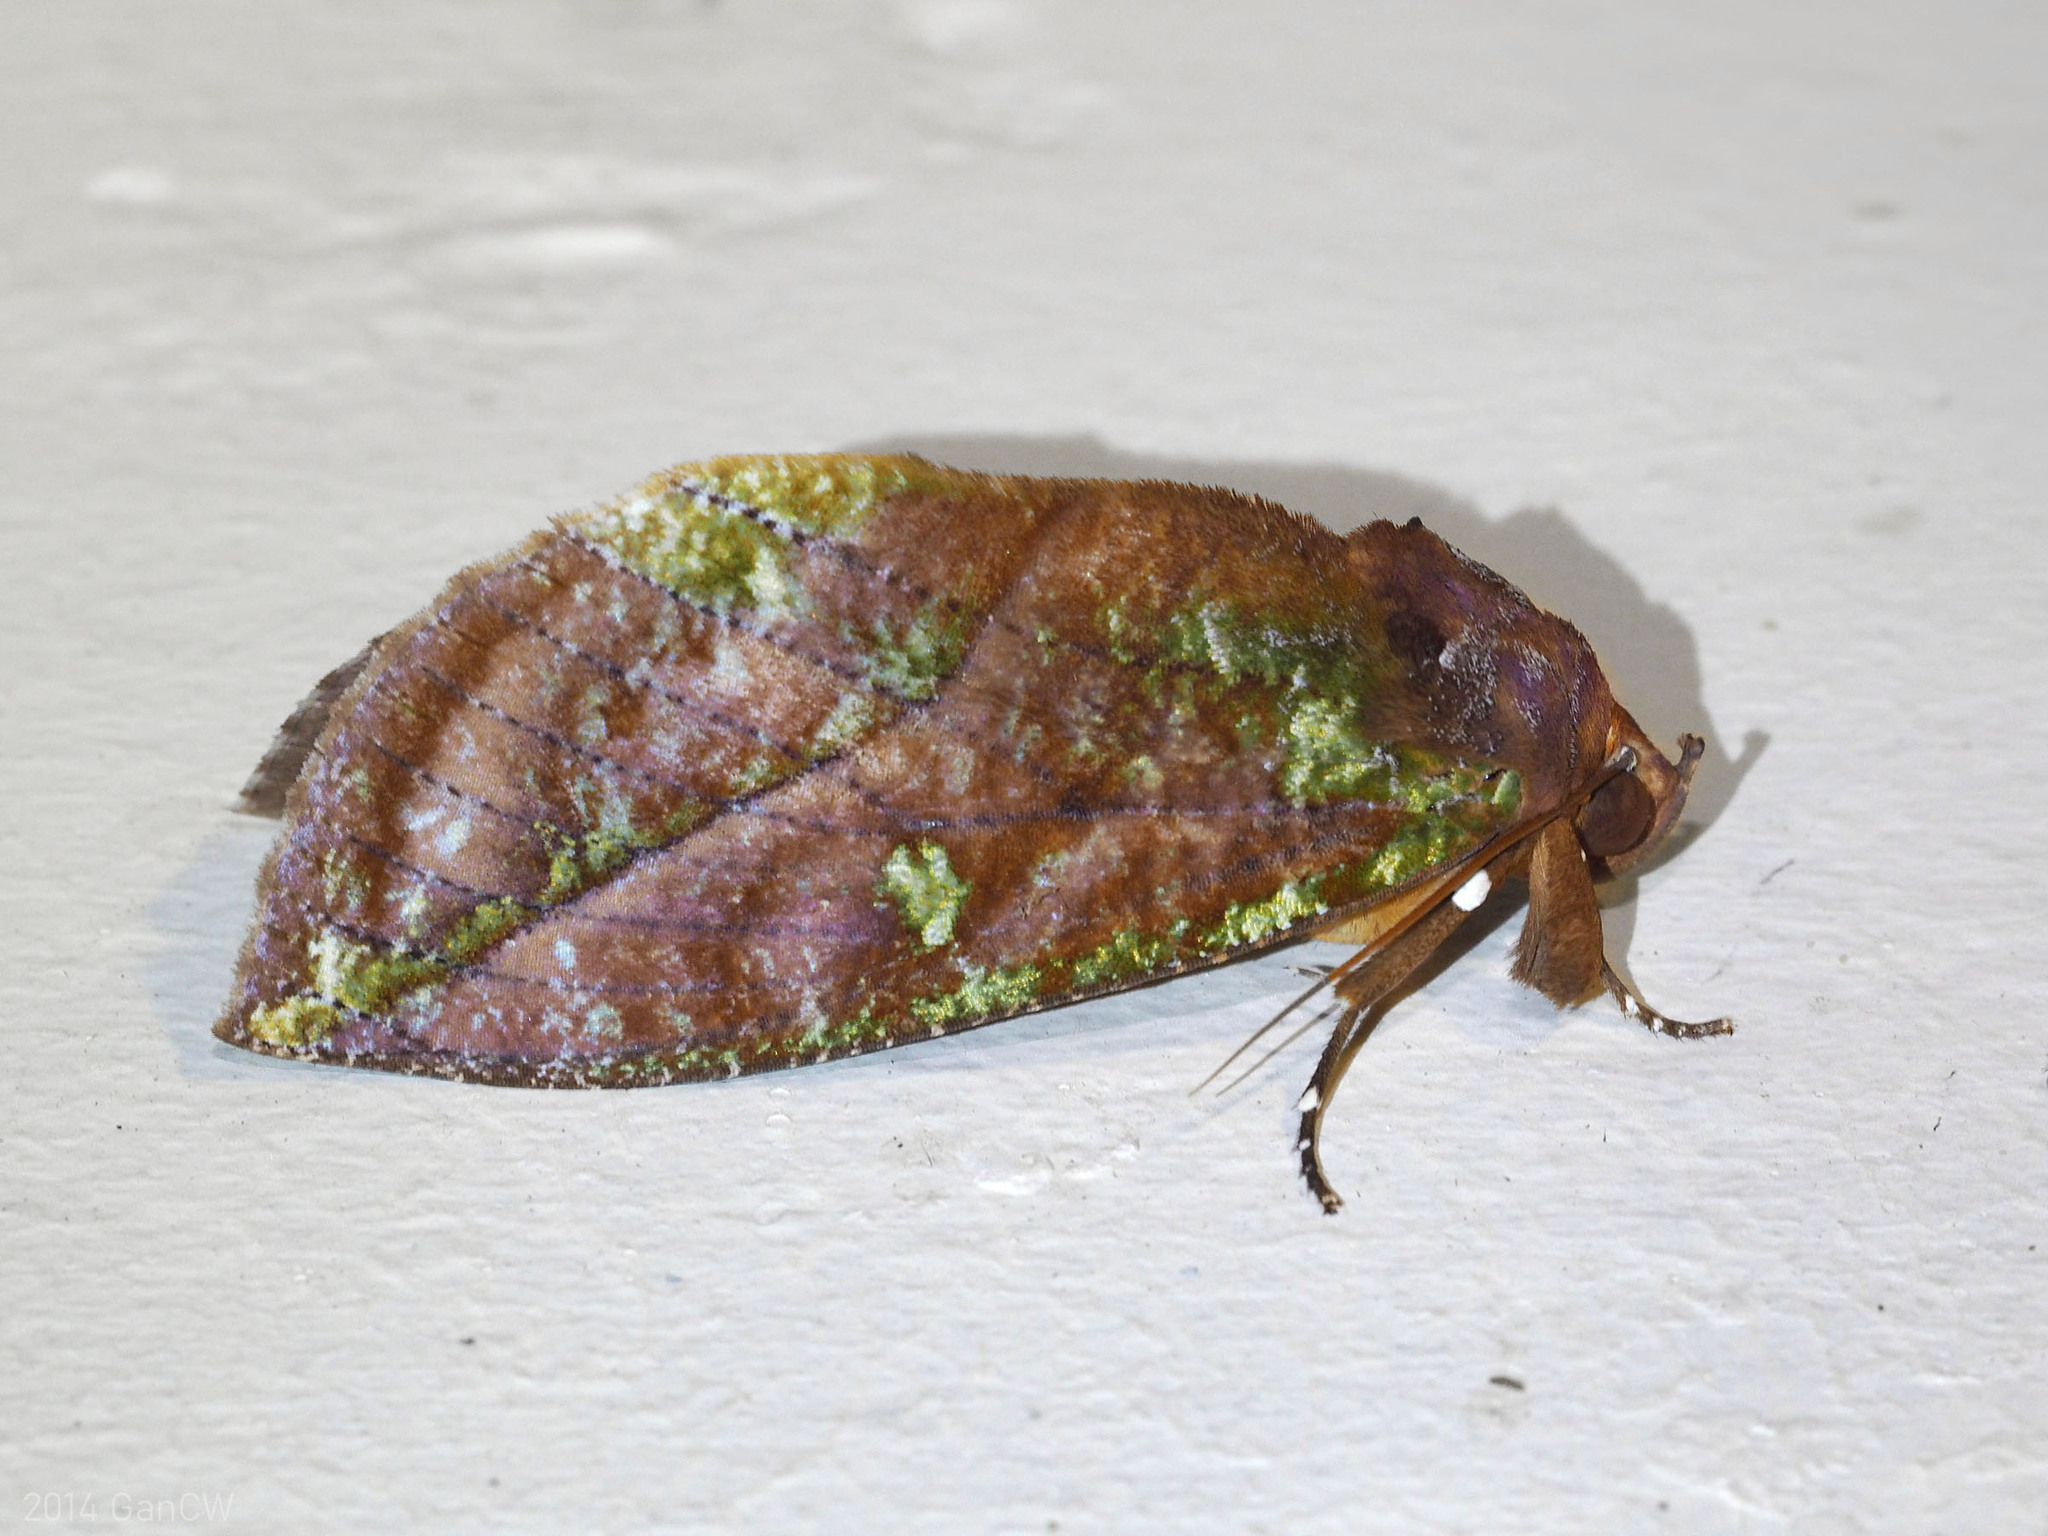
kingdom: Animalia
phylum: Arthropoda
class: Insecta
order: Lepidoptera
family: Erebidae
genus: Eudocima
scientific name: Eudocima mionopastea
